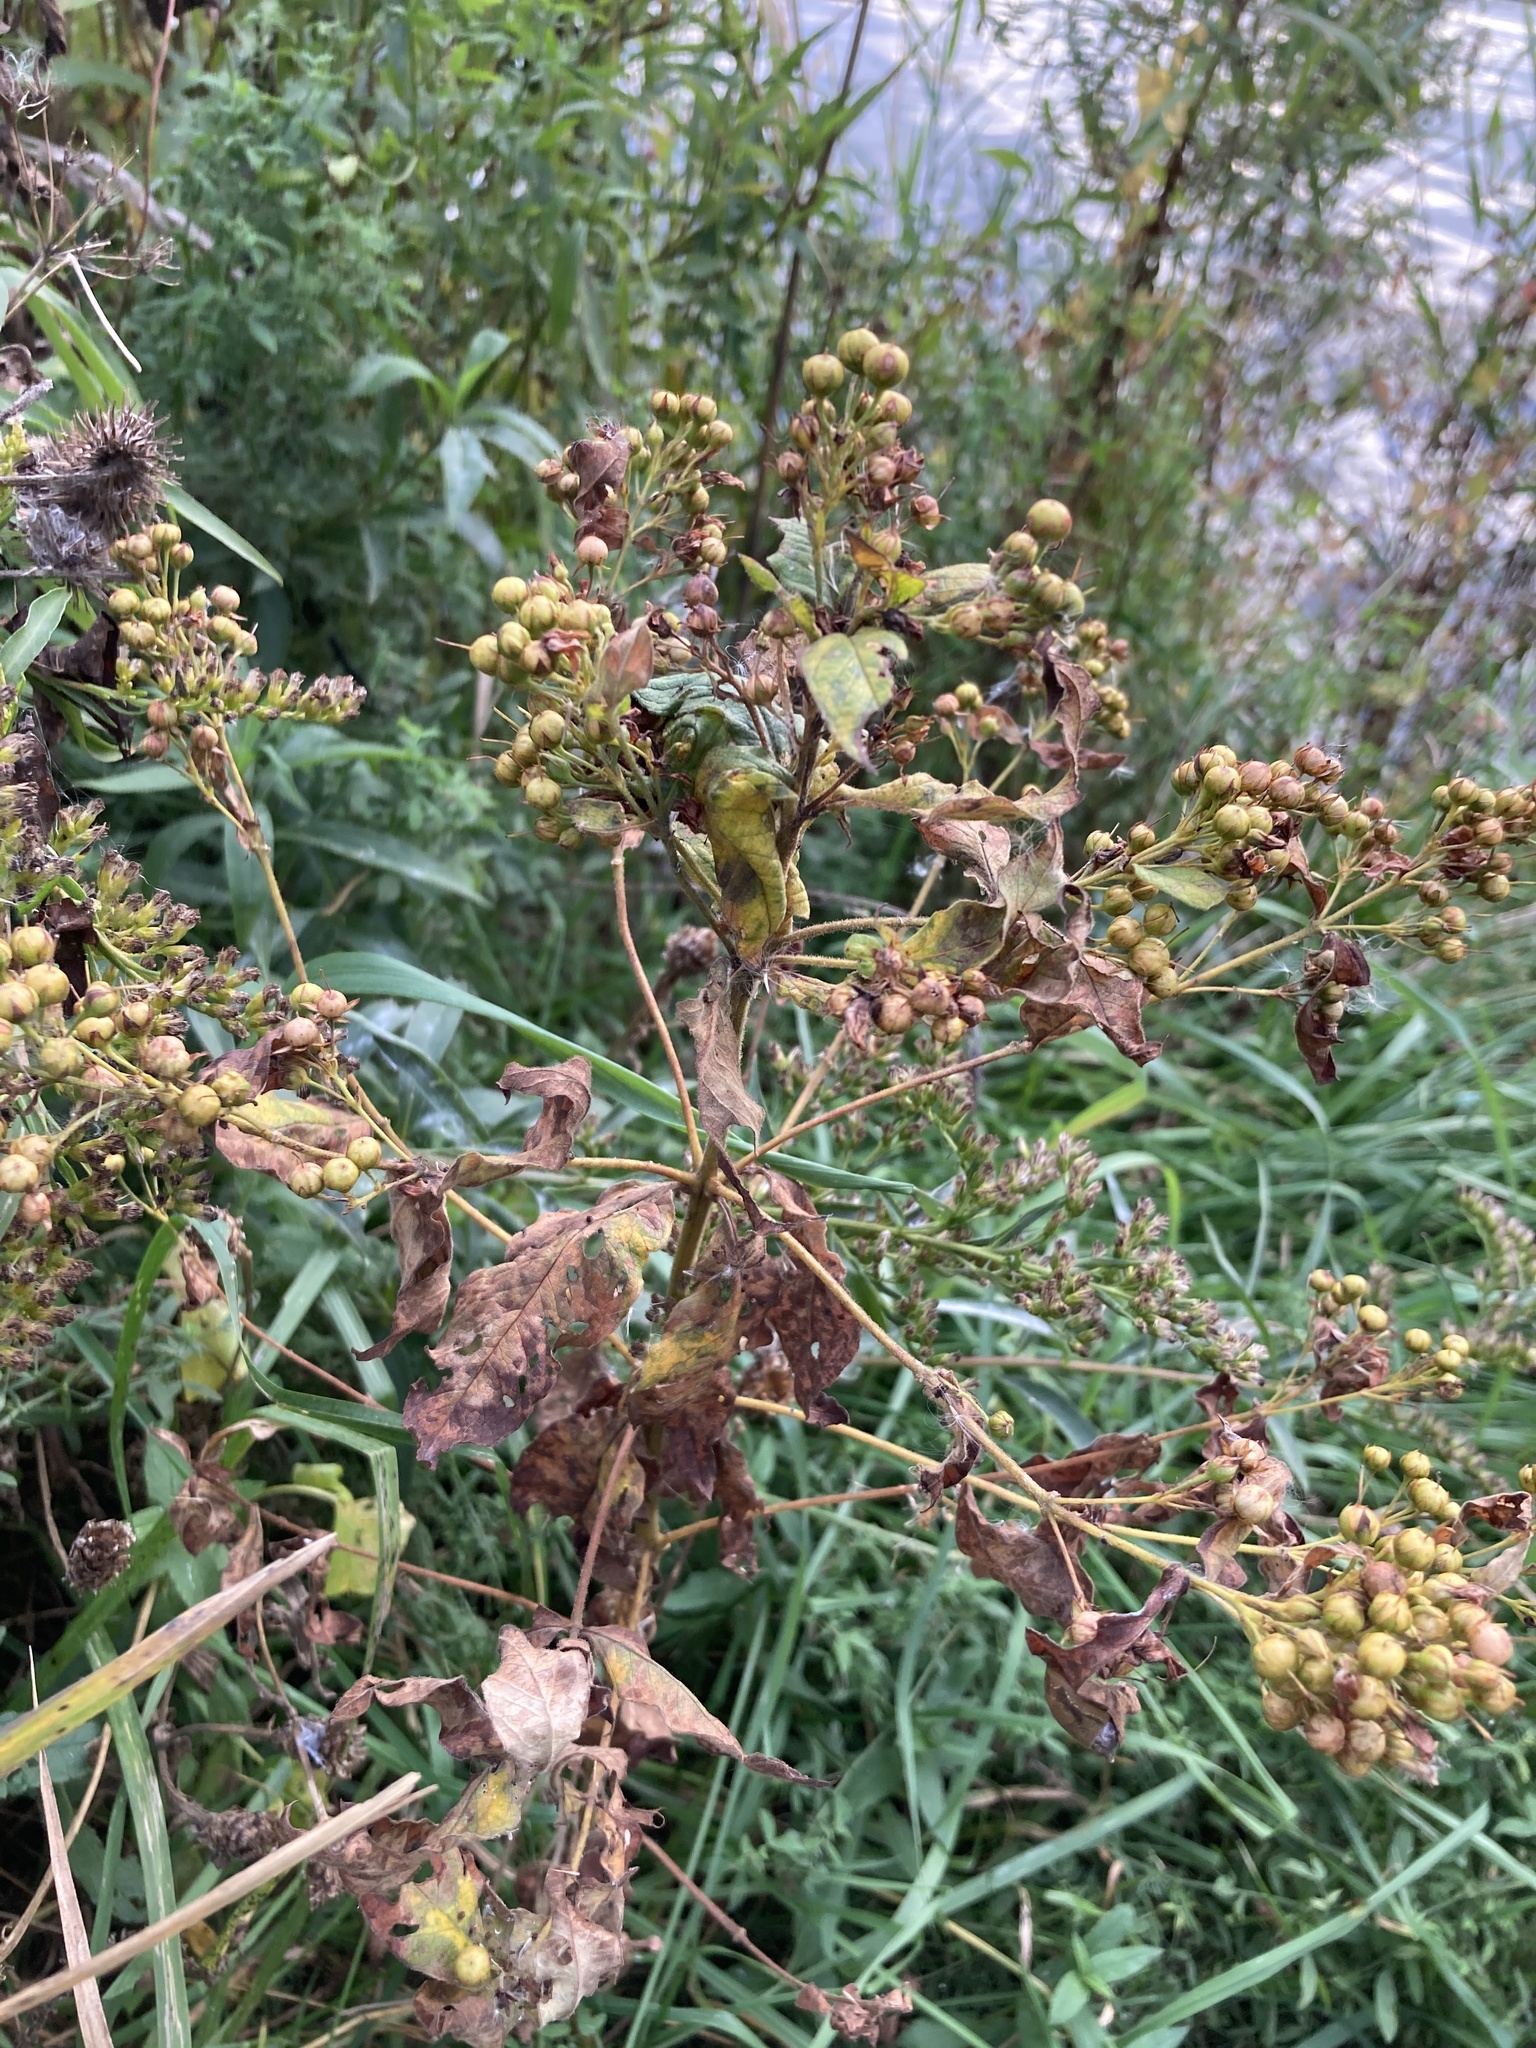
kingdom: Plantae
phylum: Tracheophyta
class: Magnoliopsida
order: Ericales
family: Primulaceae
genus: Lysimachia
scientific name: Lysimachia vulgaris
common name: Yellow loosestrife
